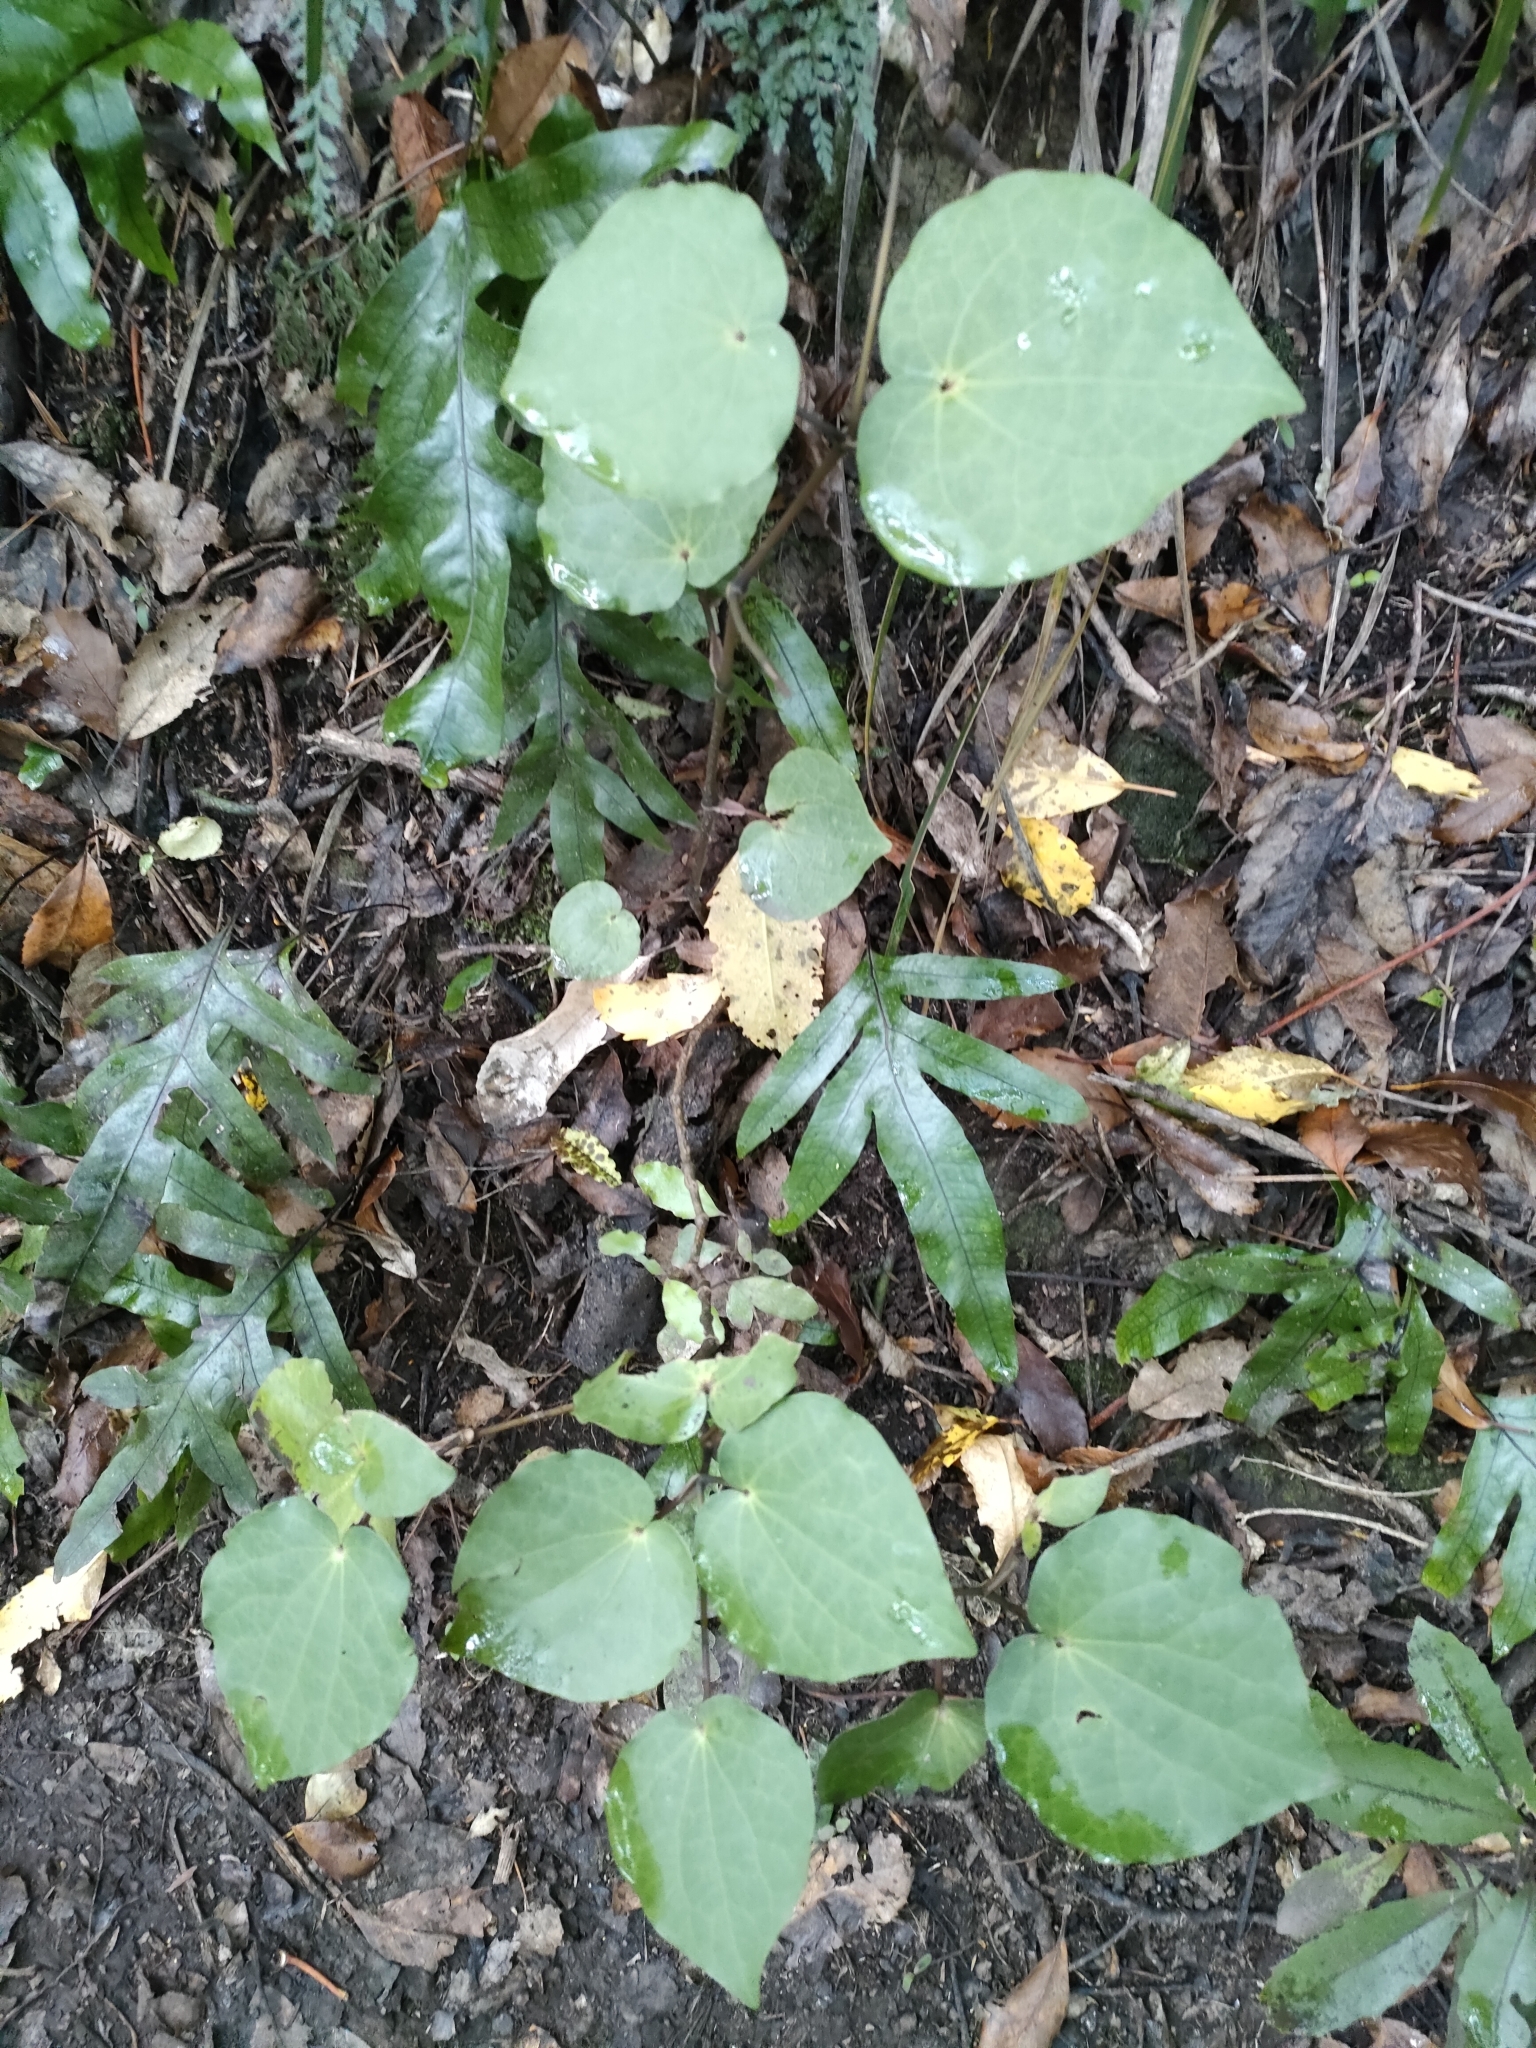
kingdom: Plantae
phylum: Tracheophyta
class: Magnoliopsida
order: Piperales
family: Piperaceae
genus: Macropiper
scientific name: Macropiper excelsum
